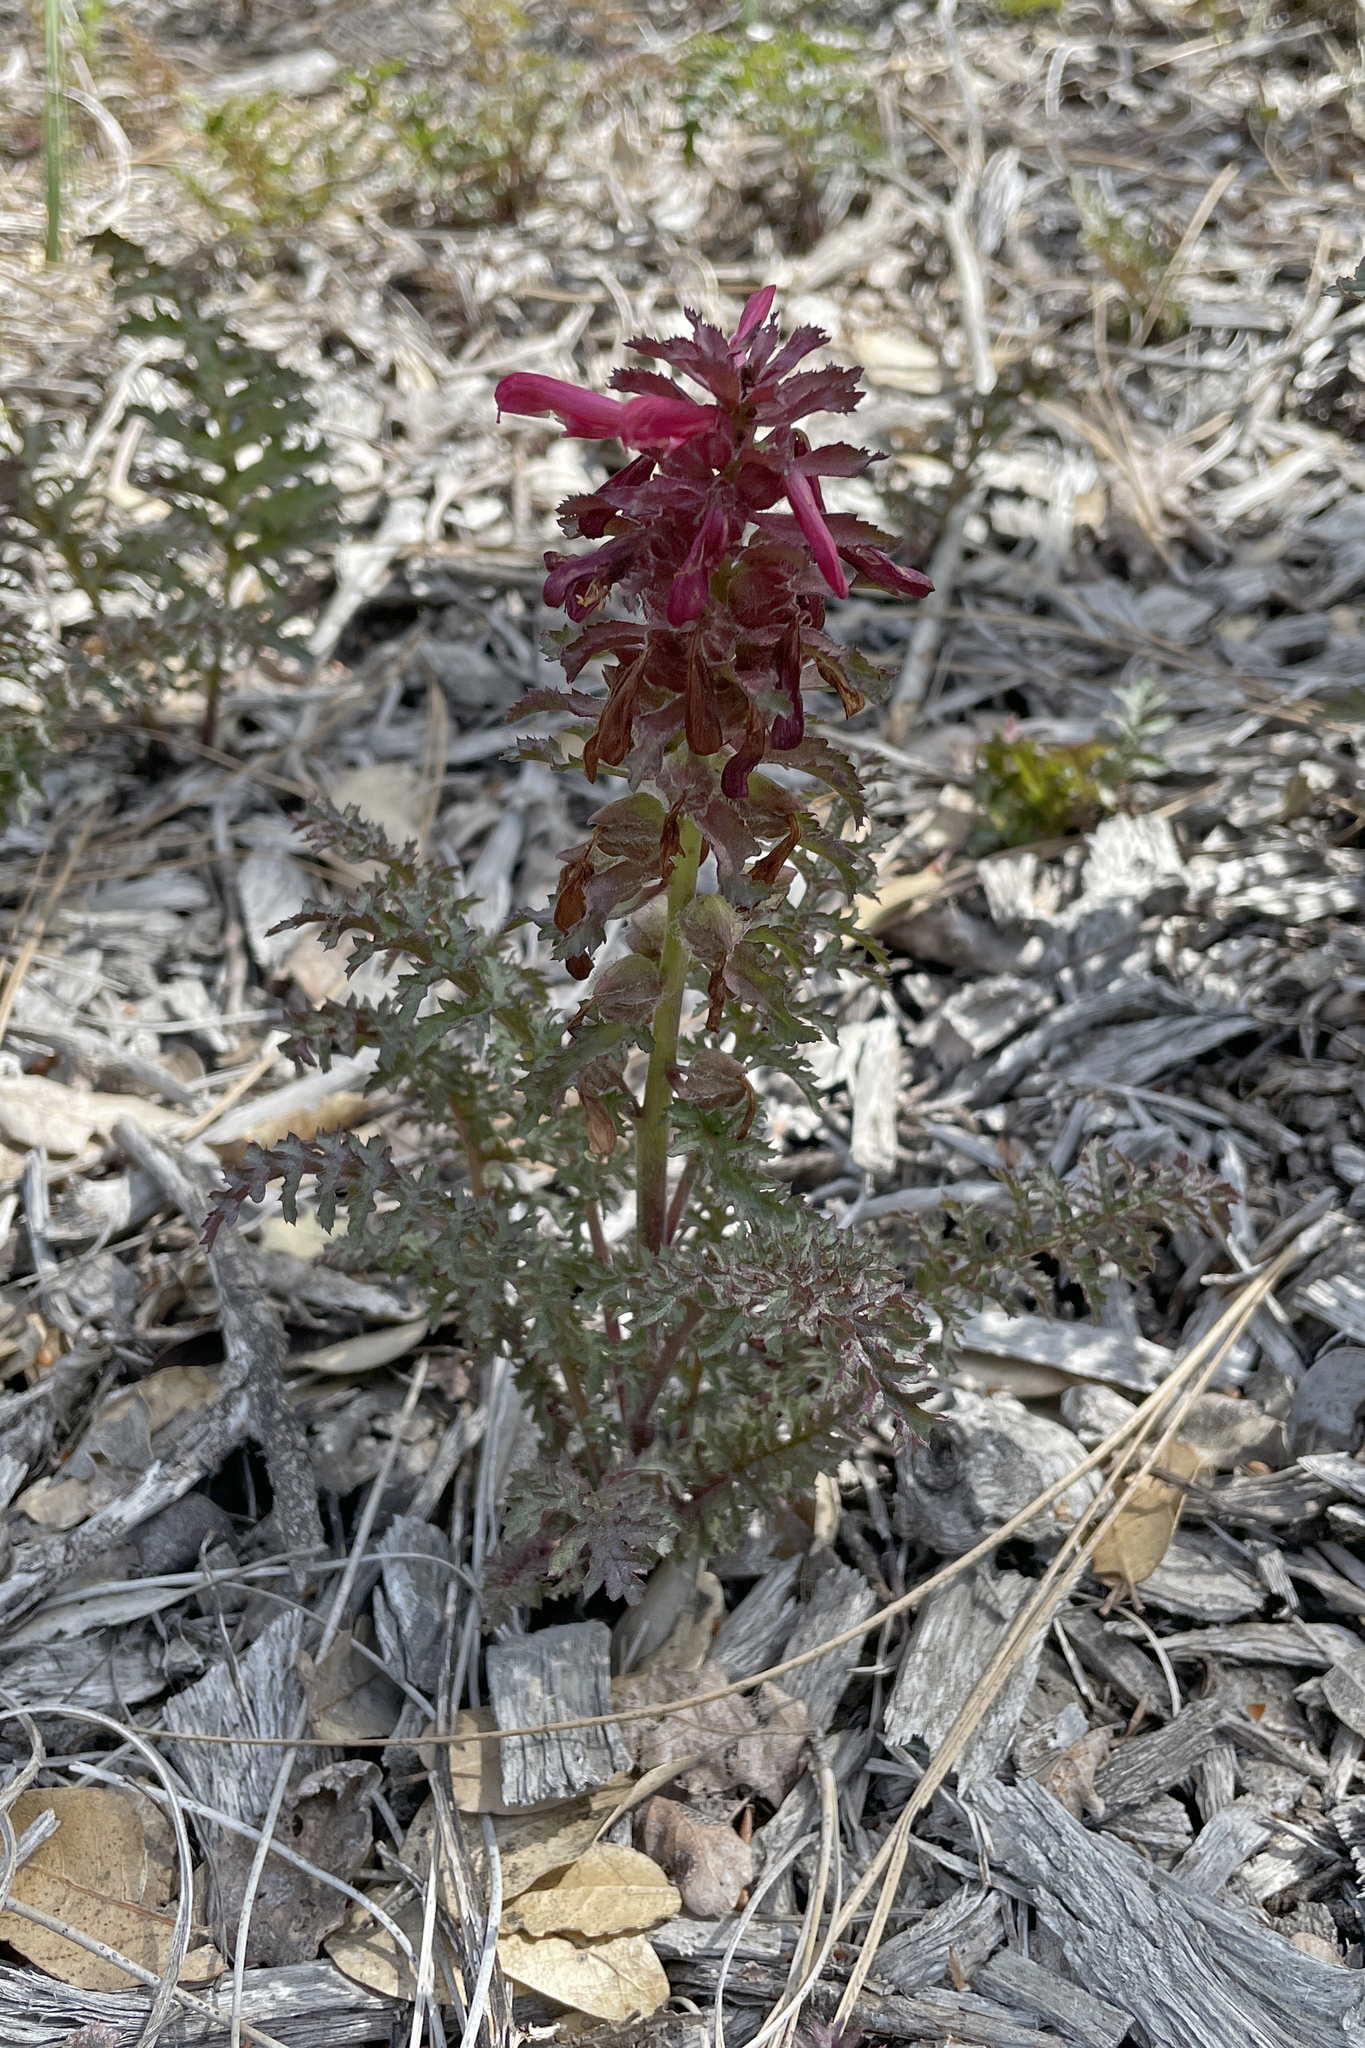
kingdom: Plantae
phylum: Tracheophyta
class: Magnoliopsida
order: Lamiales
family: Orobanchaceae
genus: Pedicularis
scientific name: Pedicularis densiflora
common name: Indian warrior
